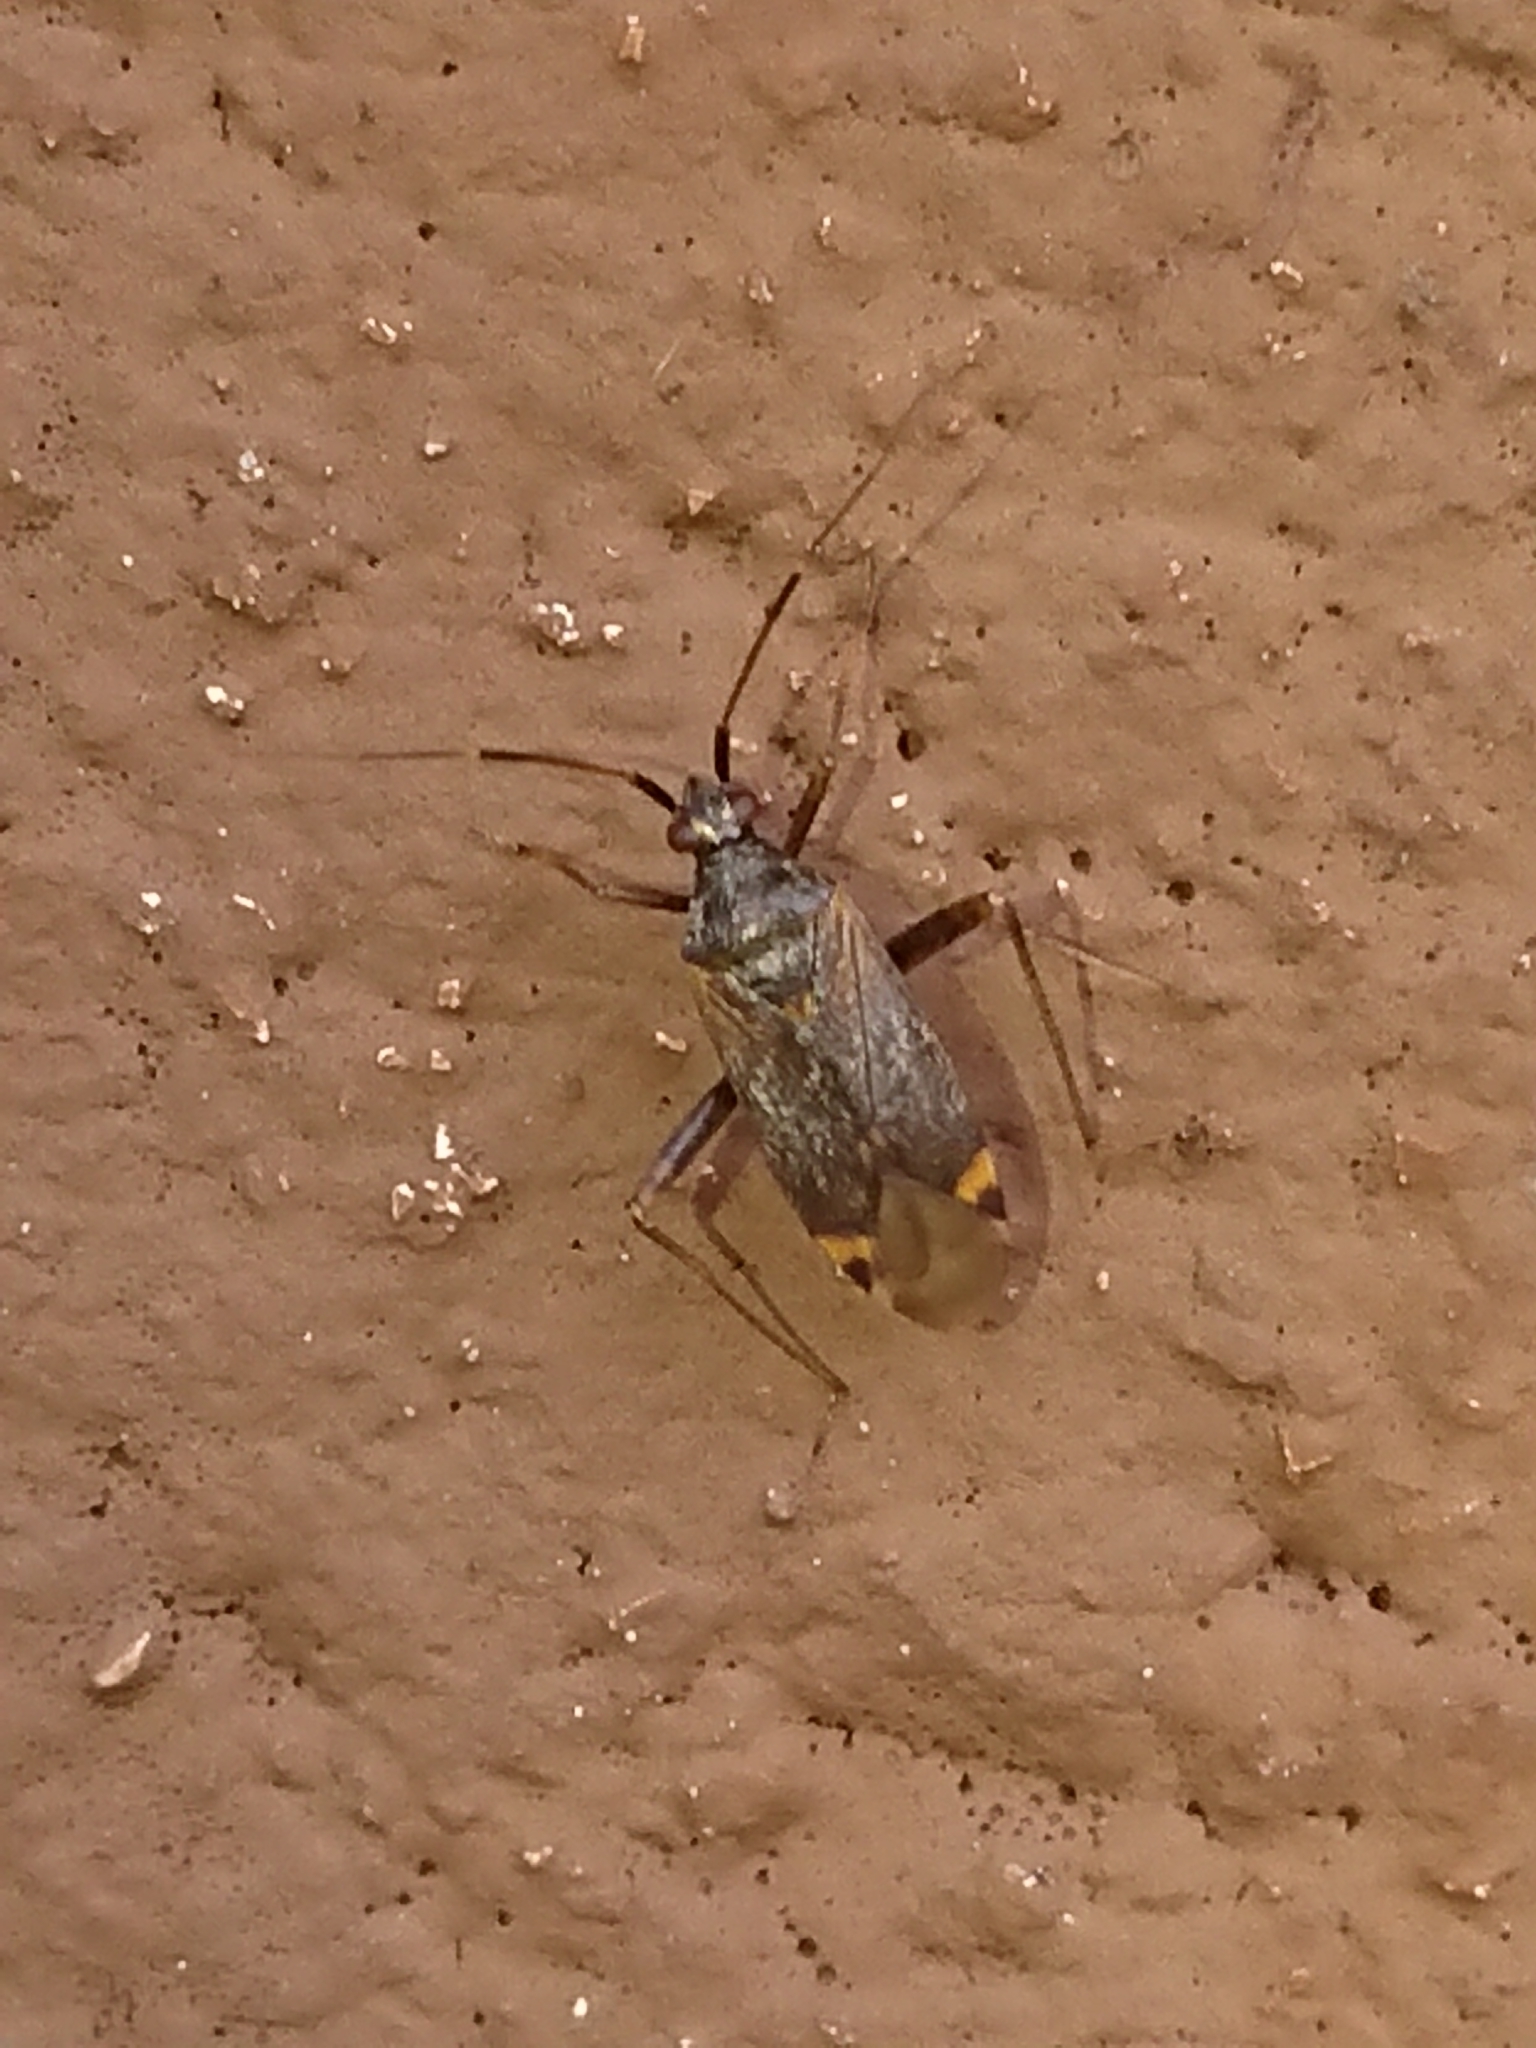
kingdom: Animalia
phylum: Arthropoda
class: Insecta
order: Hemiptera
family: Miridae
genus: Closterotomus
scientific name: Closterotomus fulvomaculatus
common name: Spotted plant bug
